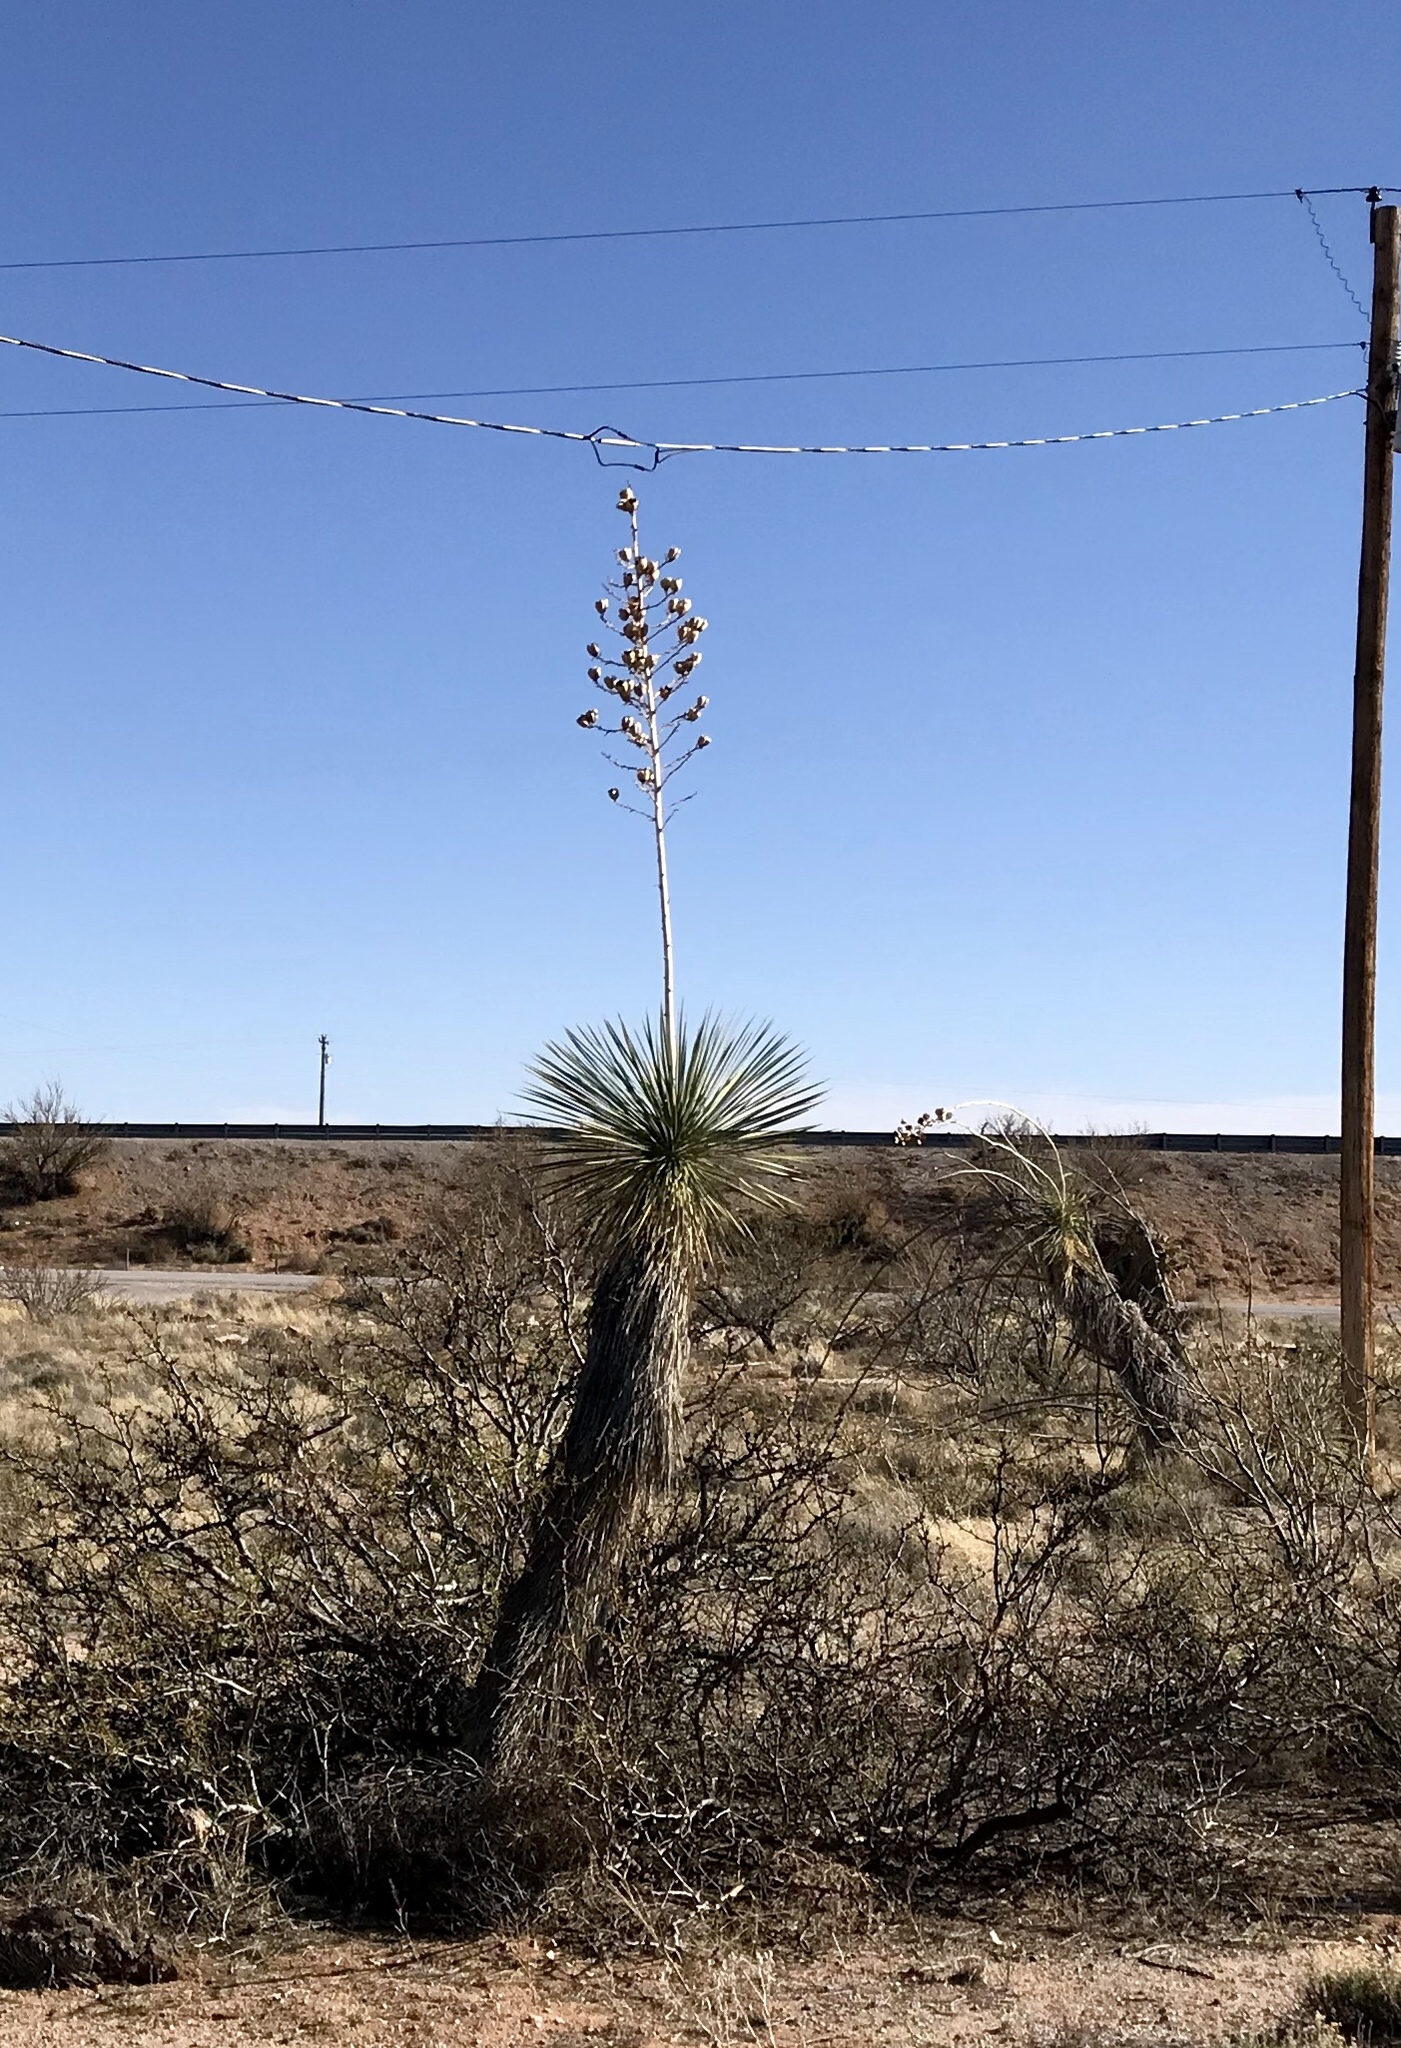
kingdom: Plantae
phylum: Tracheophyta
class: Liliopsida
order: Asparagales
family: Asparagaceae
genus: Yucca
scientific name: Yucca elata
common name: Palmella
